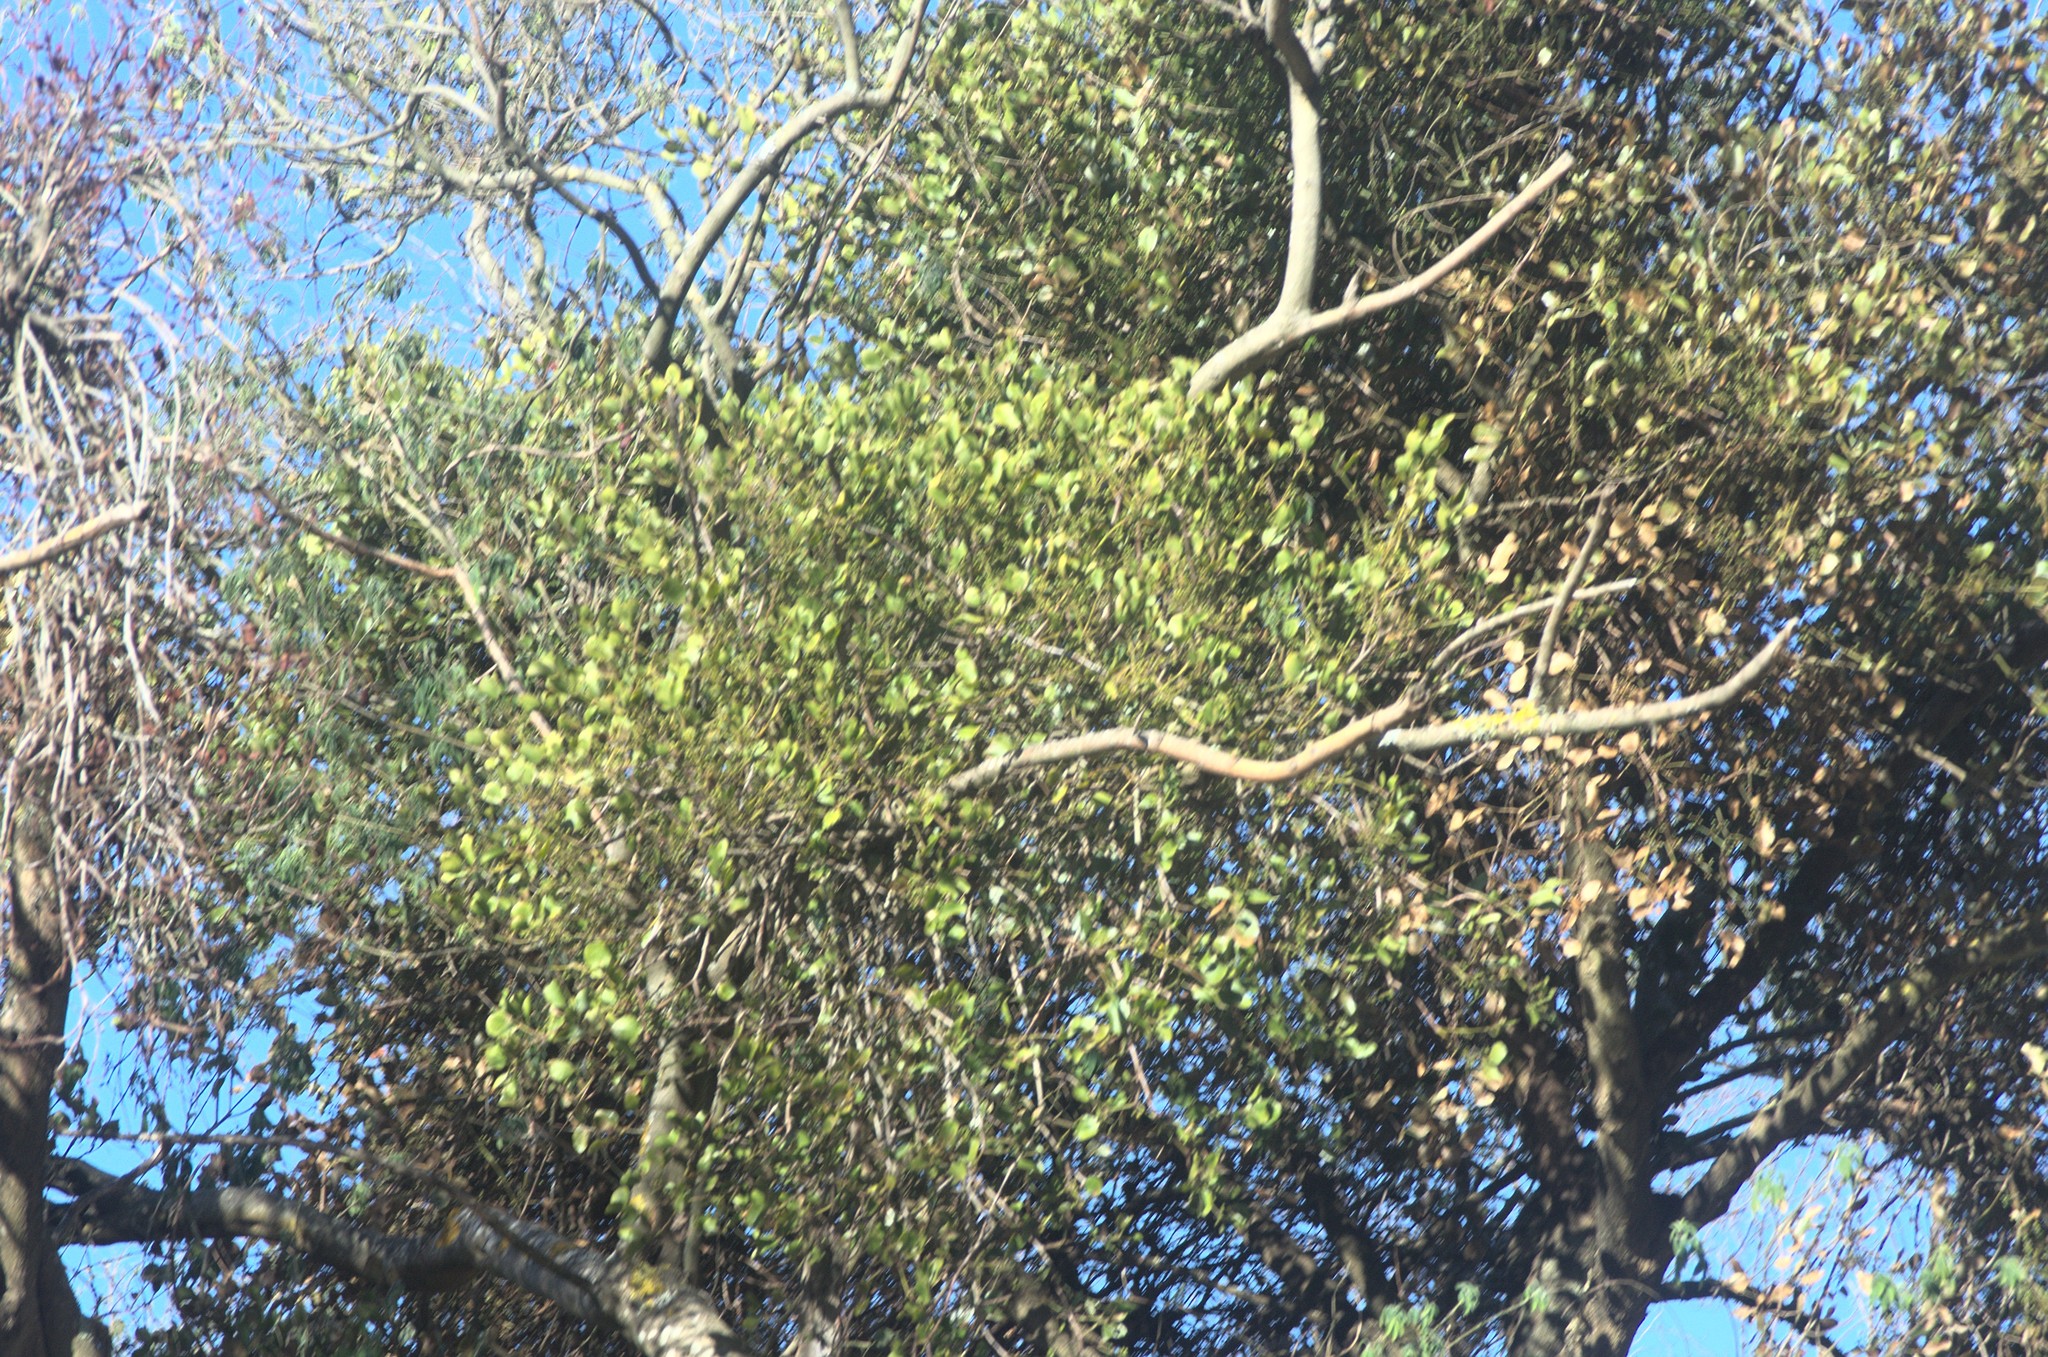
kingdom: Plantae
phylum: Tracheophyta
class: Magnoliopsida
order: Santalales
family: Loranthaceae
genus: Ileostylus
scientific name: Ileostylus micranthus
